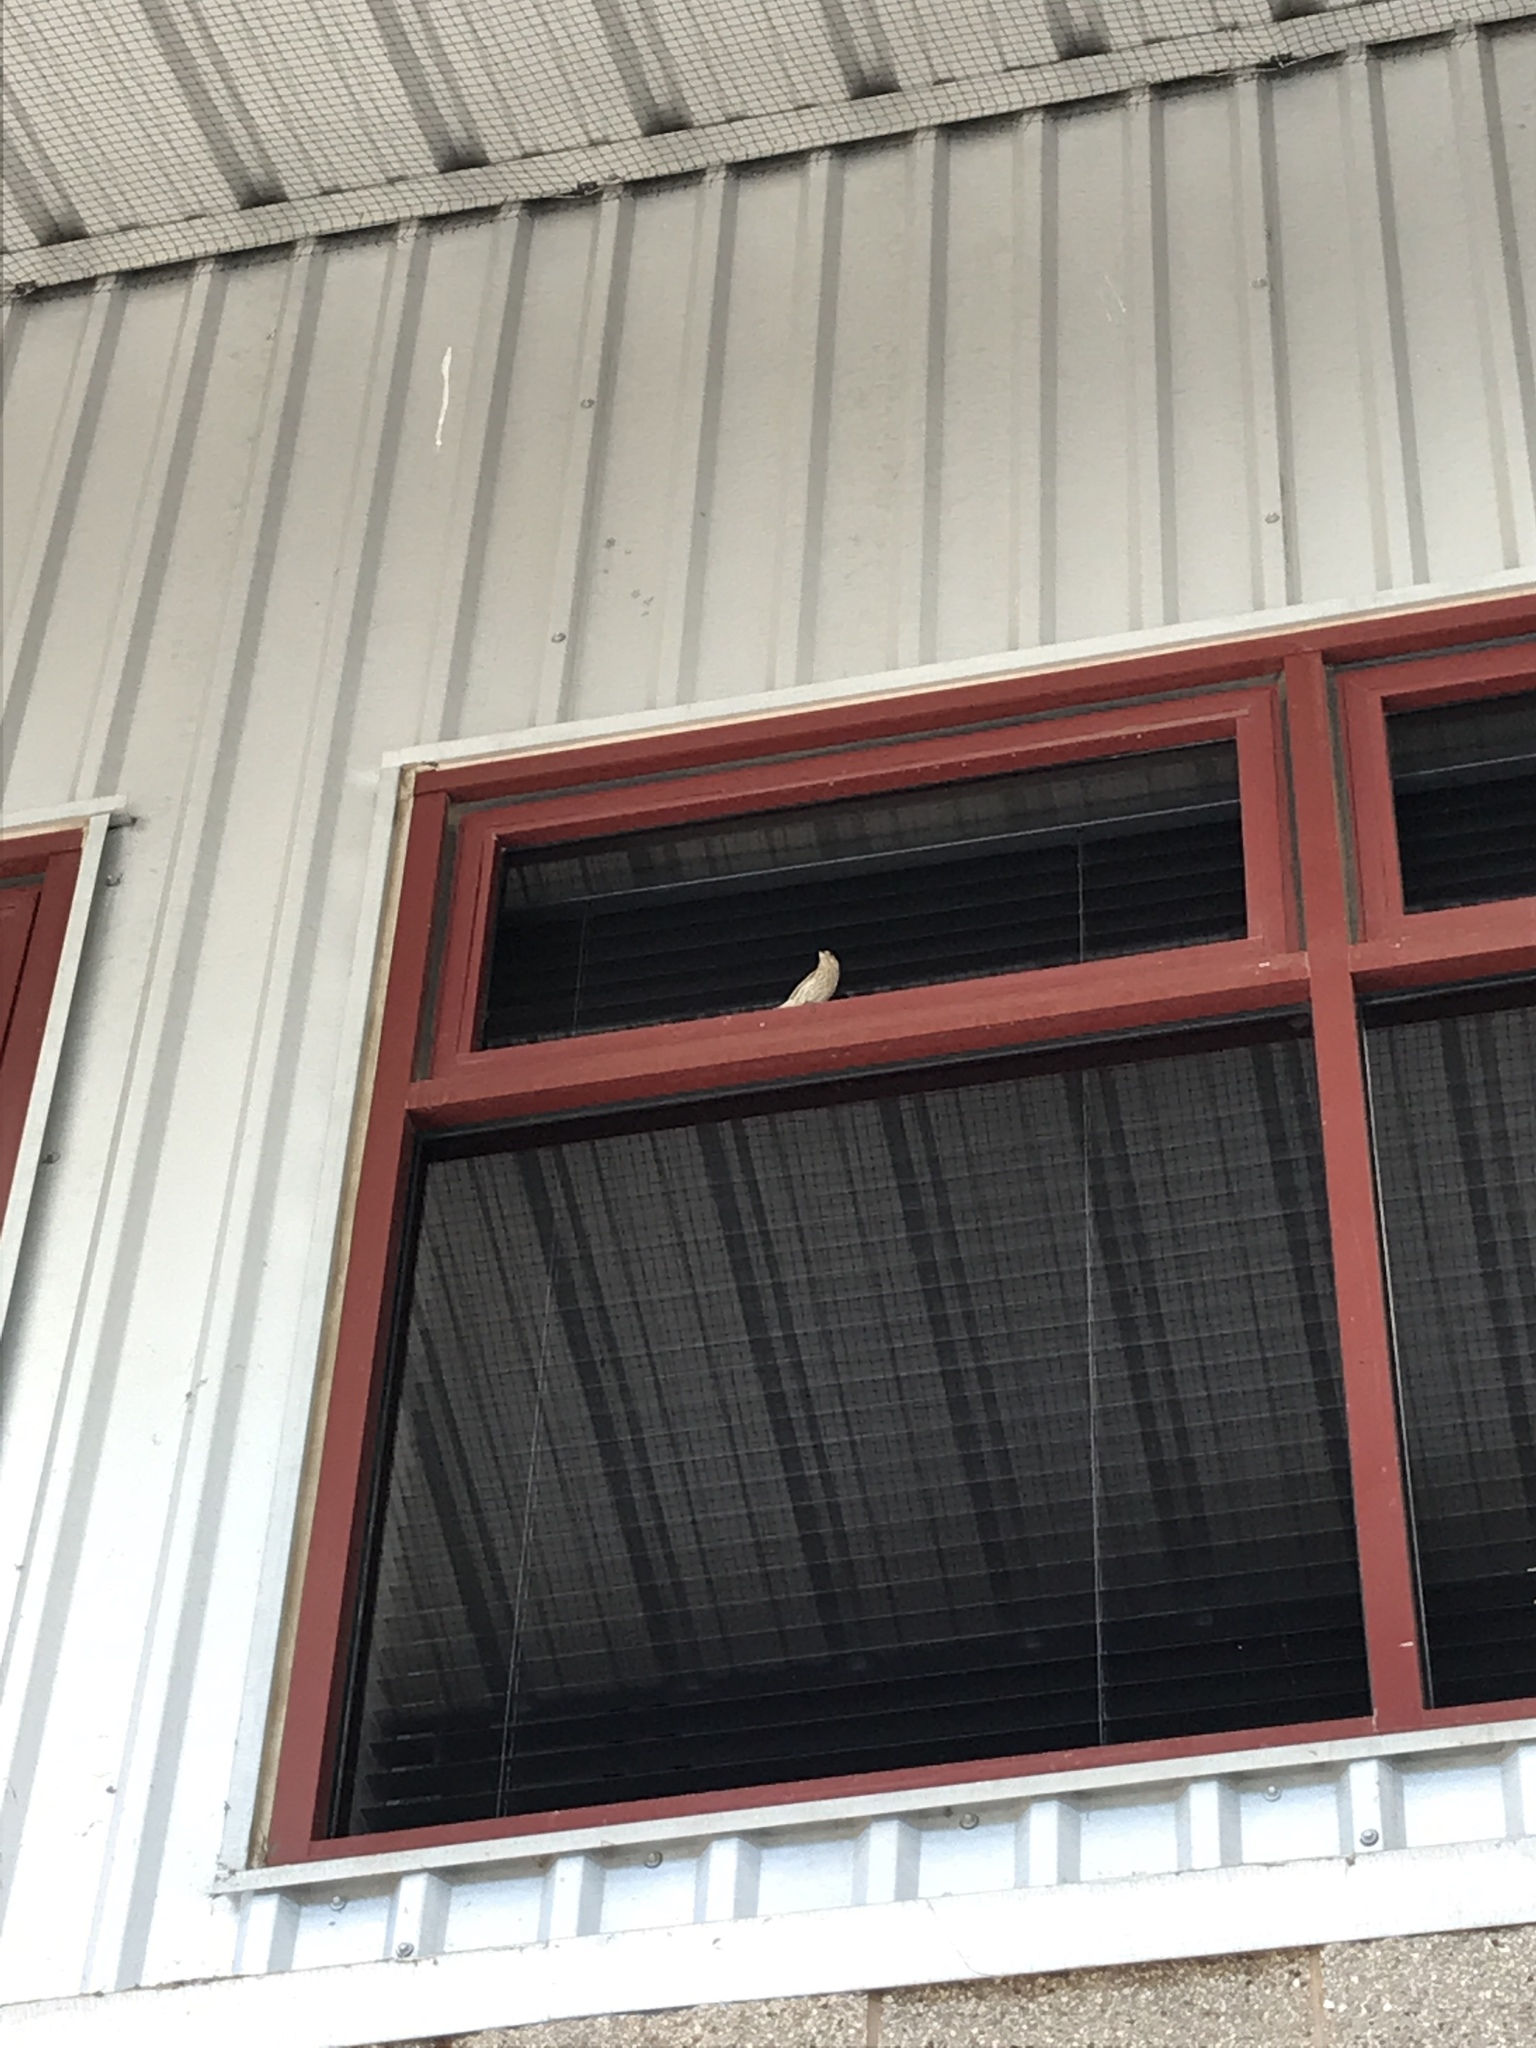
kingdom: Animalia
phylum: Chordata
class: Aves
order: Passeriformes
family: Fringillidae
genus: Haemorhous
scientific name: Haemorhous mexicanus
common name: House finch
